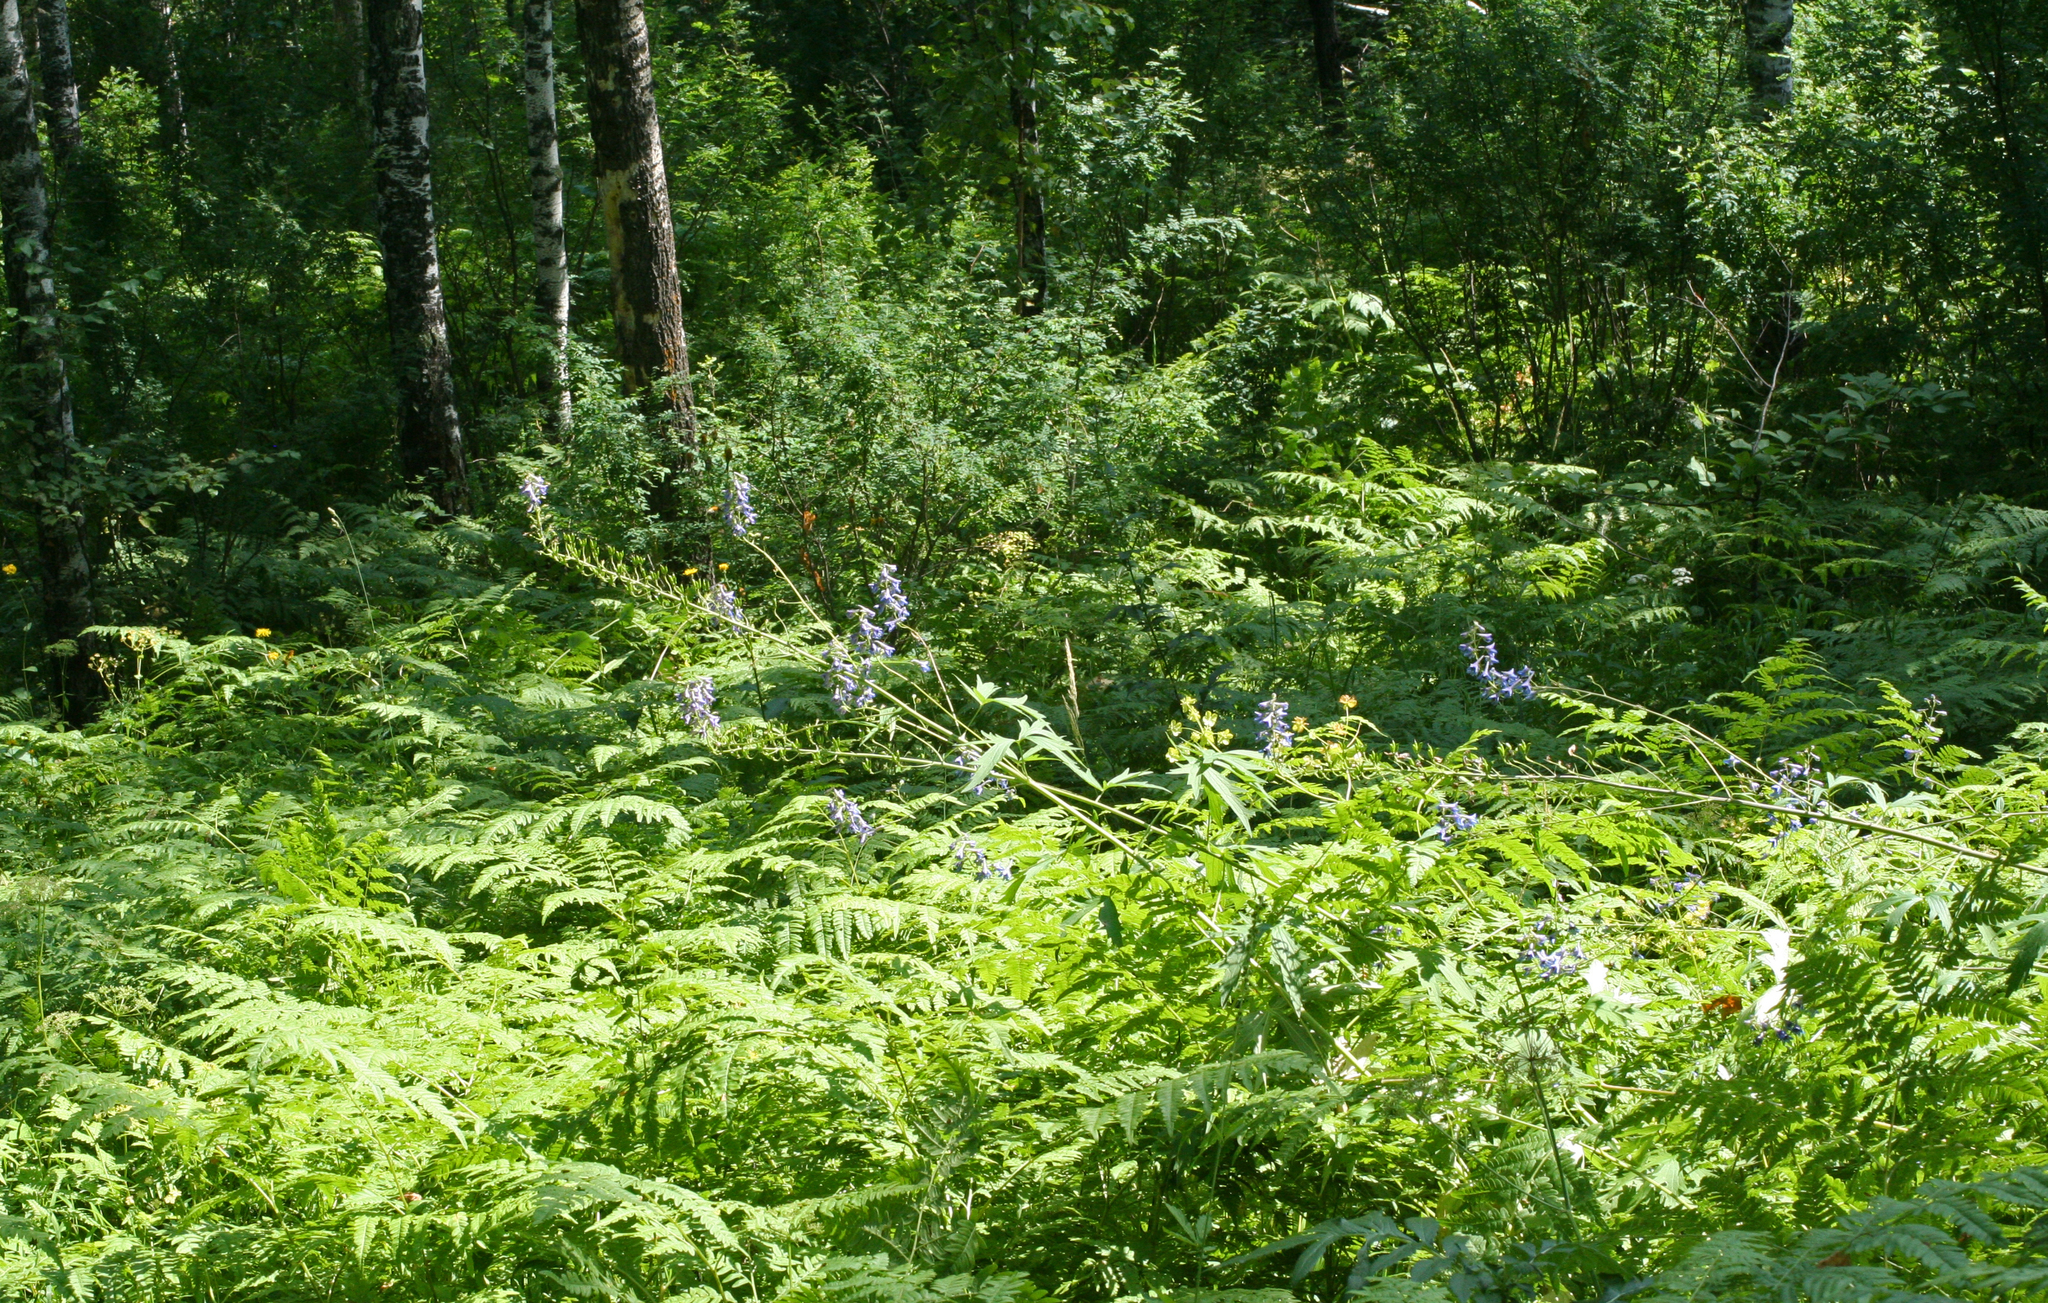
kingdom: Plantae
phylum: Tracheophyta
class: Magnoliopsida
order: Ranunculales
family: Ranunculaceae
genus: Delphinium
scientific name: Delphinium elatum
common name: Candle larkspur
